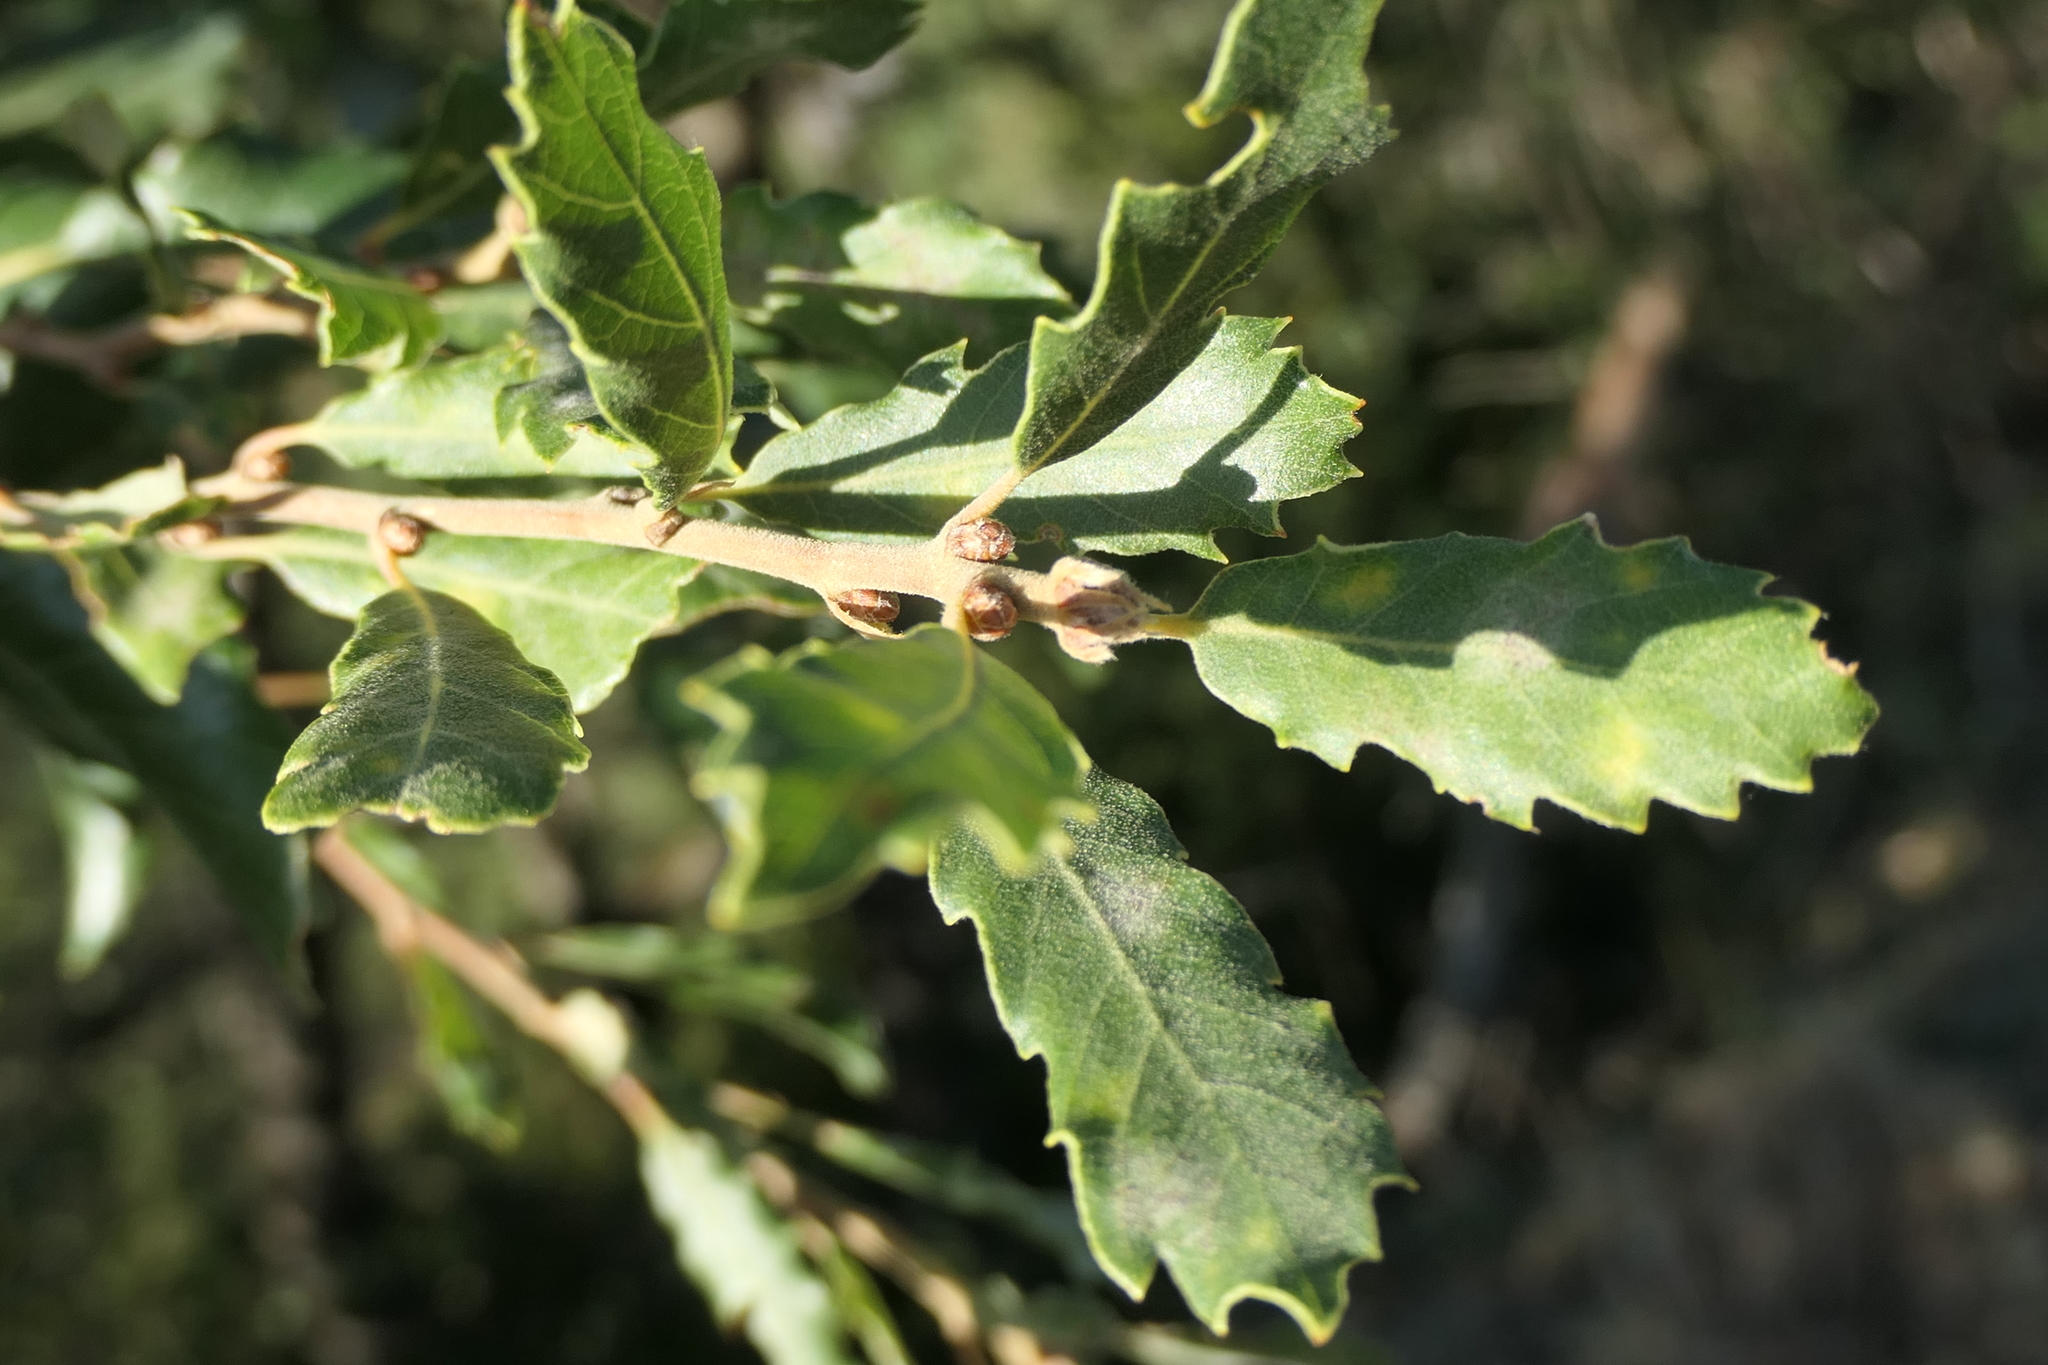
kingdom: Plantae
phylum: Tracheophyta
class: Magnoliopsida
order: Fagales
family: Fagaceae
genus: Quercus
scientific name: Quercus faginea
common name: Gall oak tree
